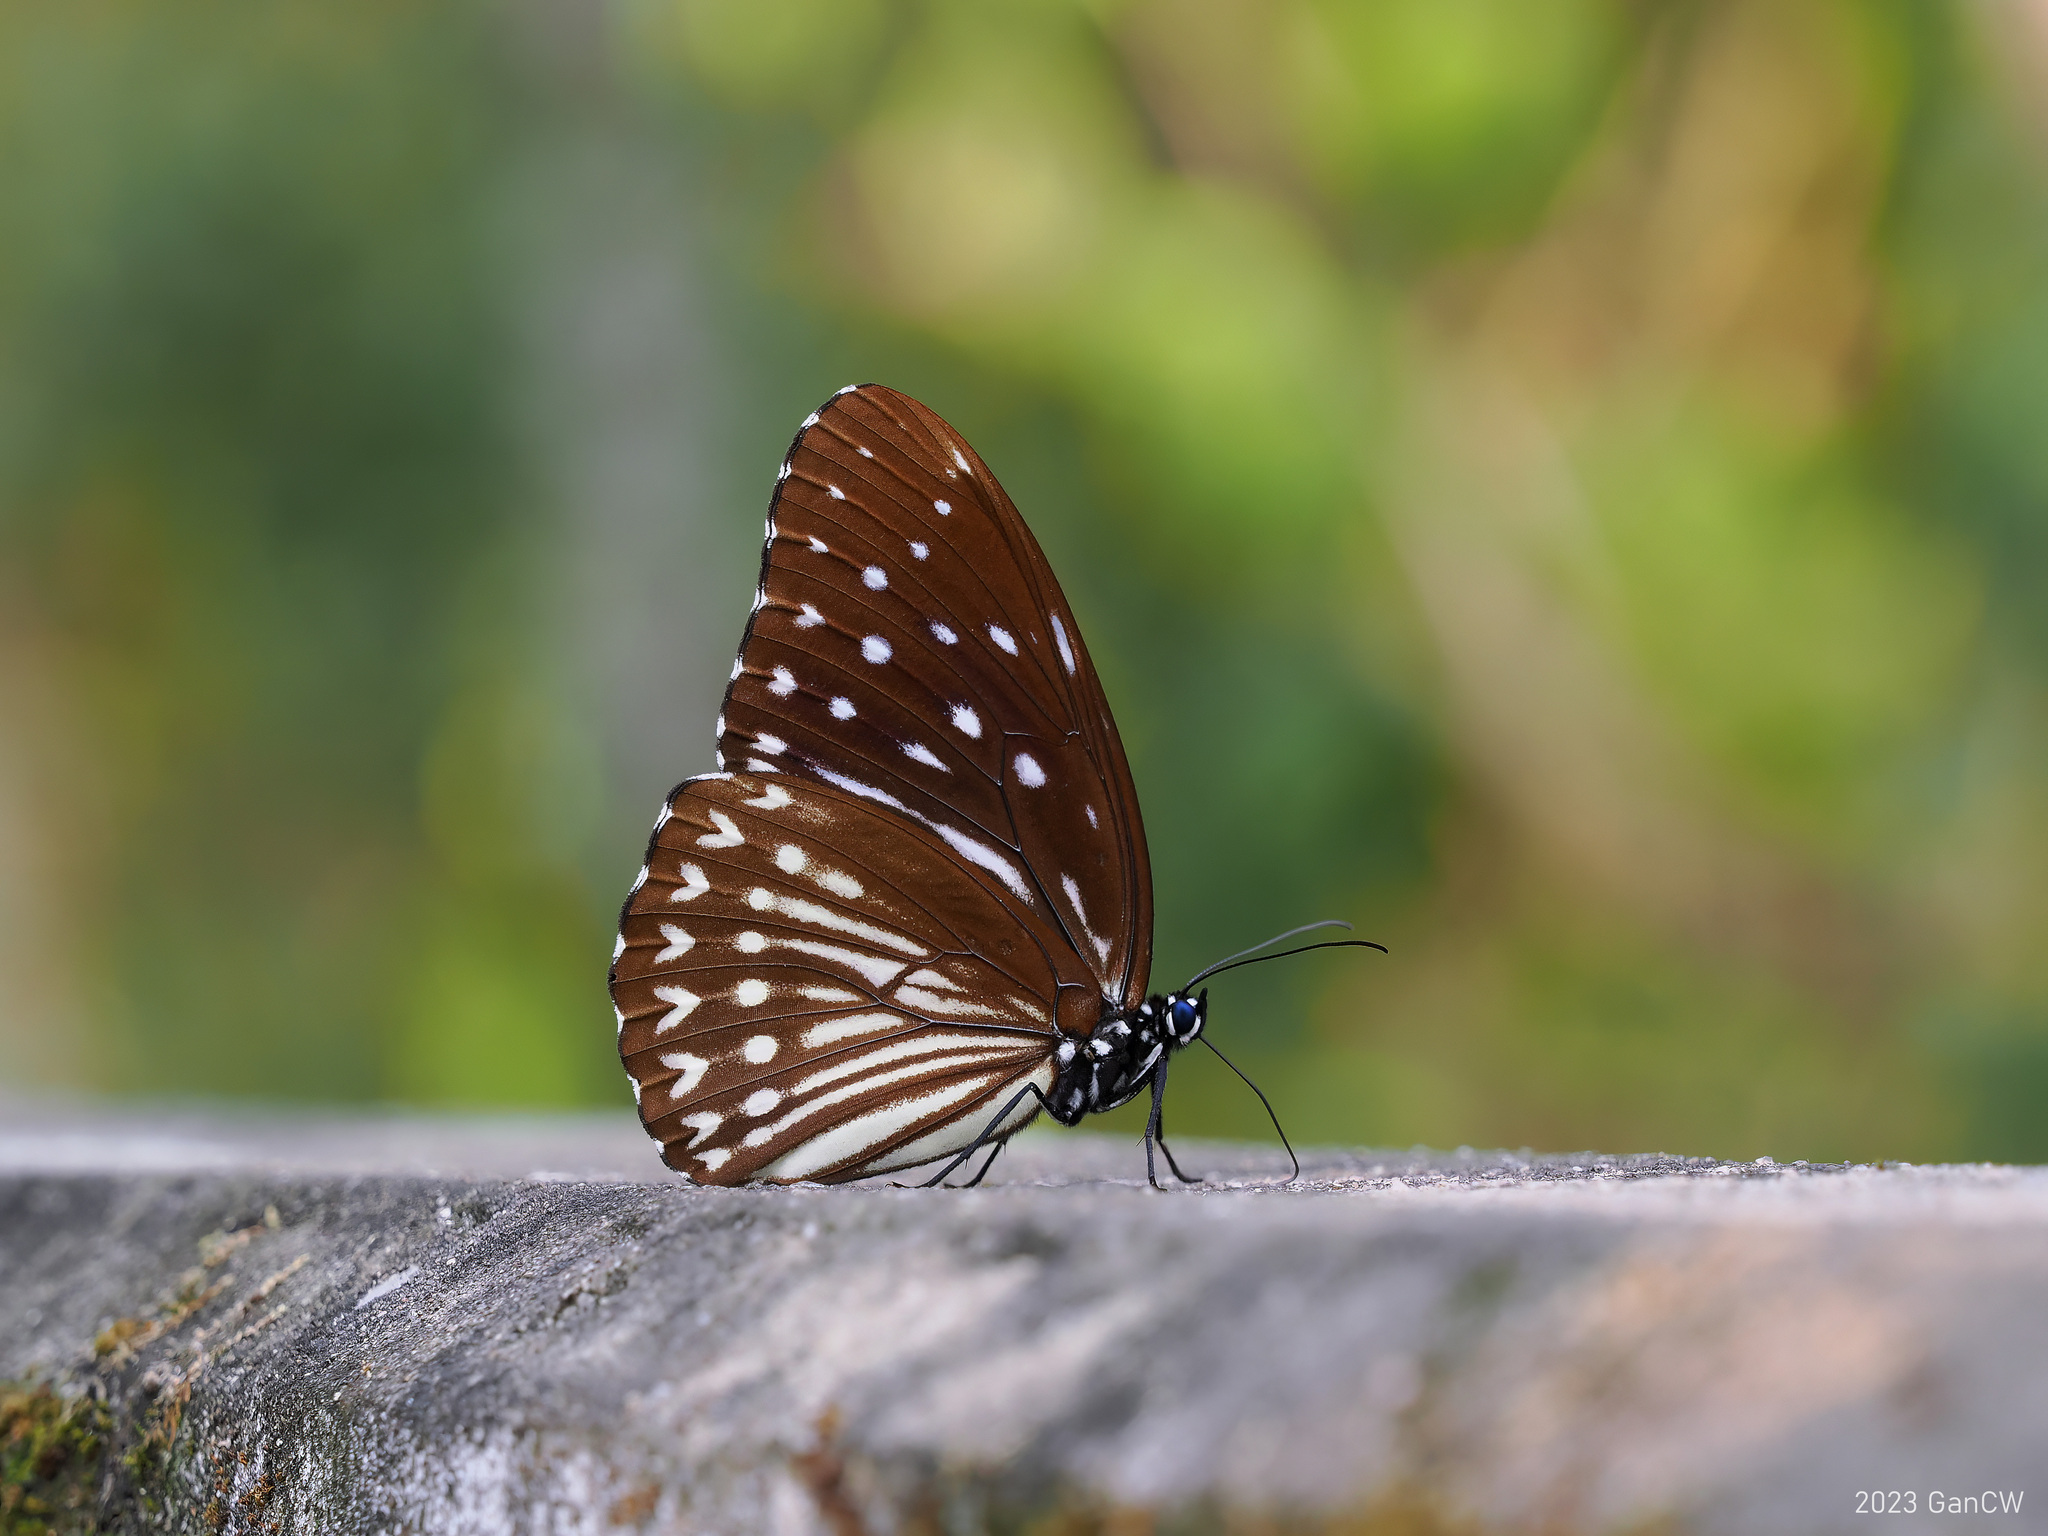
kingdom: Animalia
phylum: Arthropoda
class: Insecta
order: Lepidoptera
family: Nymphalidae
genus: Penthema
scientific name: Penthema darlisa
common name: Three-coloured kaiser
